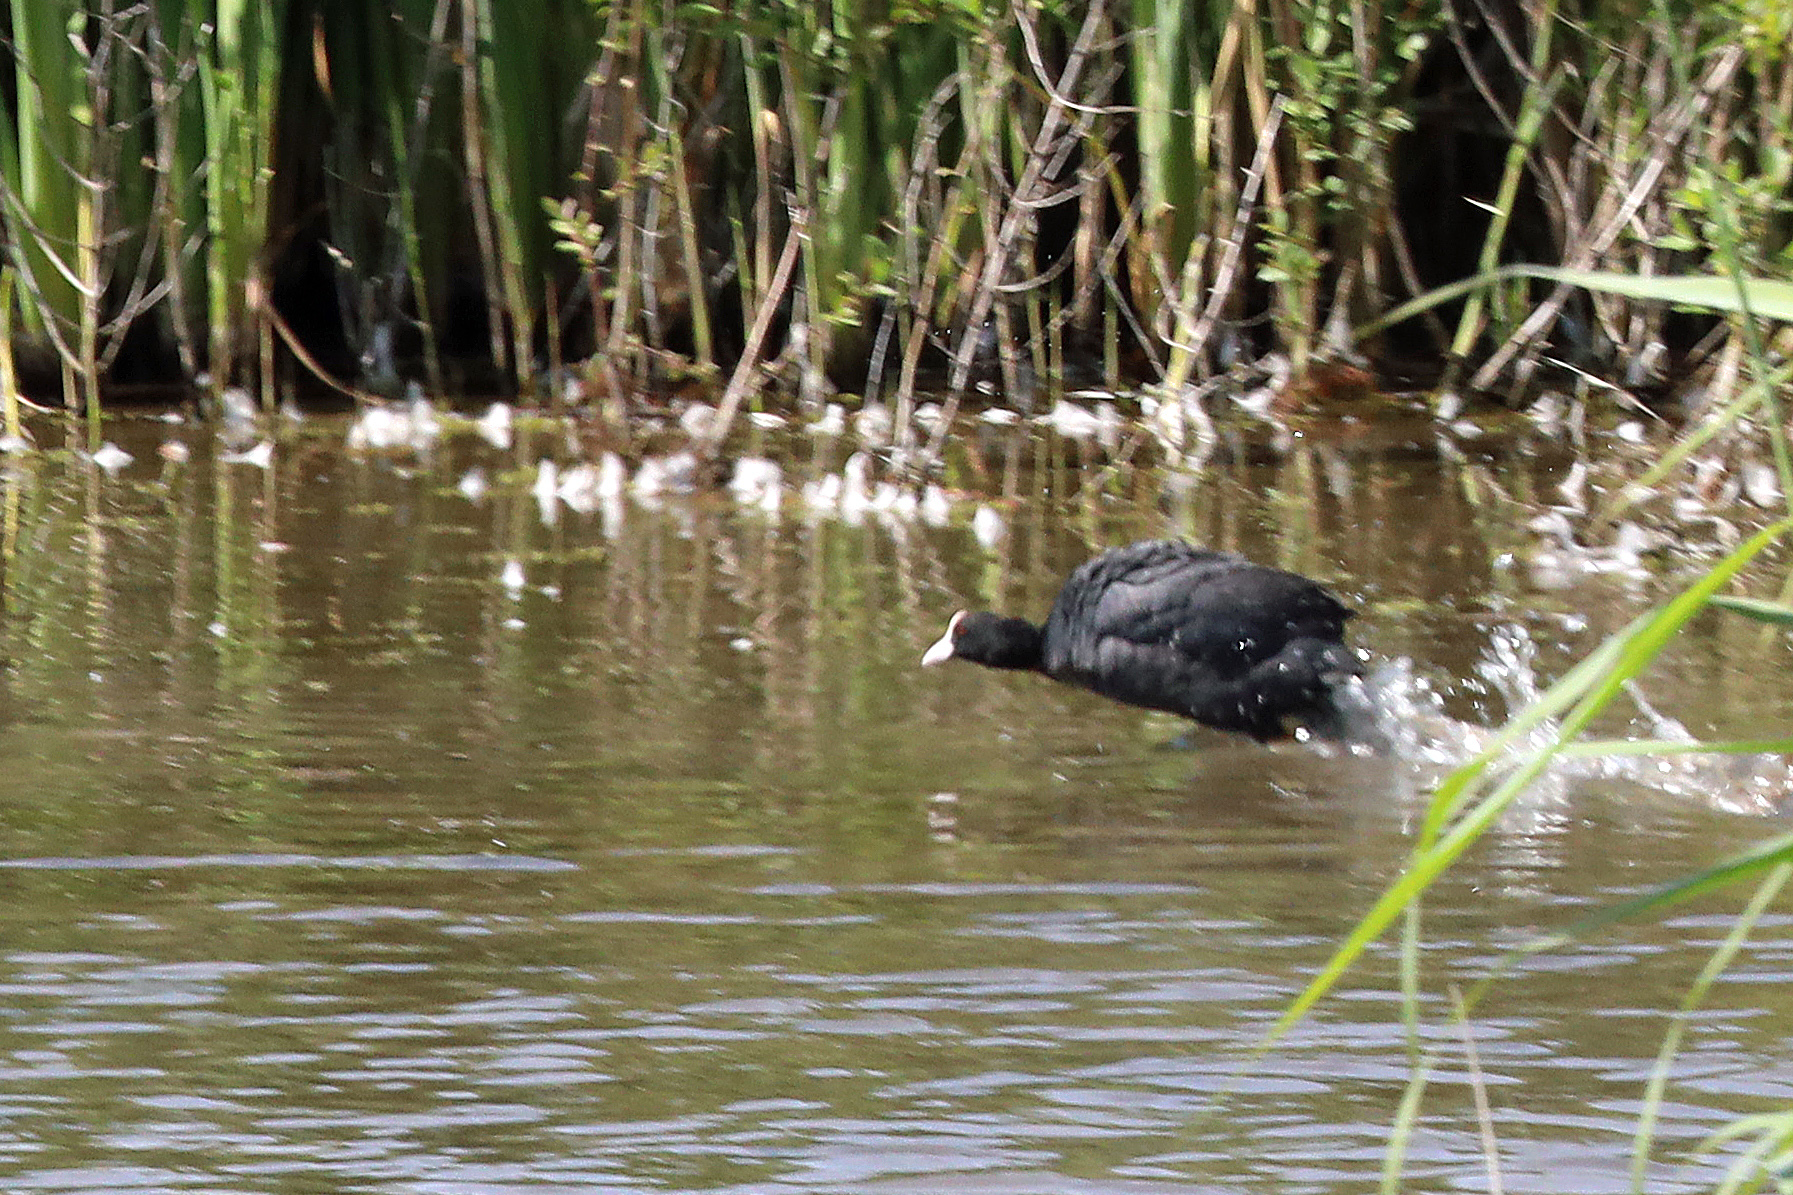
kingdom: Animalia
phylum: Chordata
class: Aves
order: Gruiformes
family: Rallidae
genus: Fulica
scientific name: Fulica atra
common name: Eurasian coot
